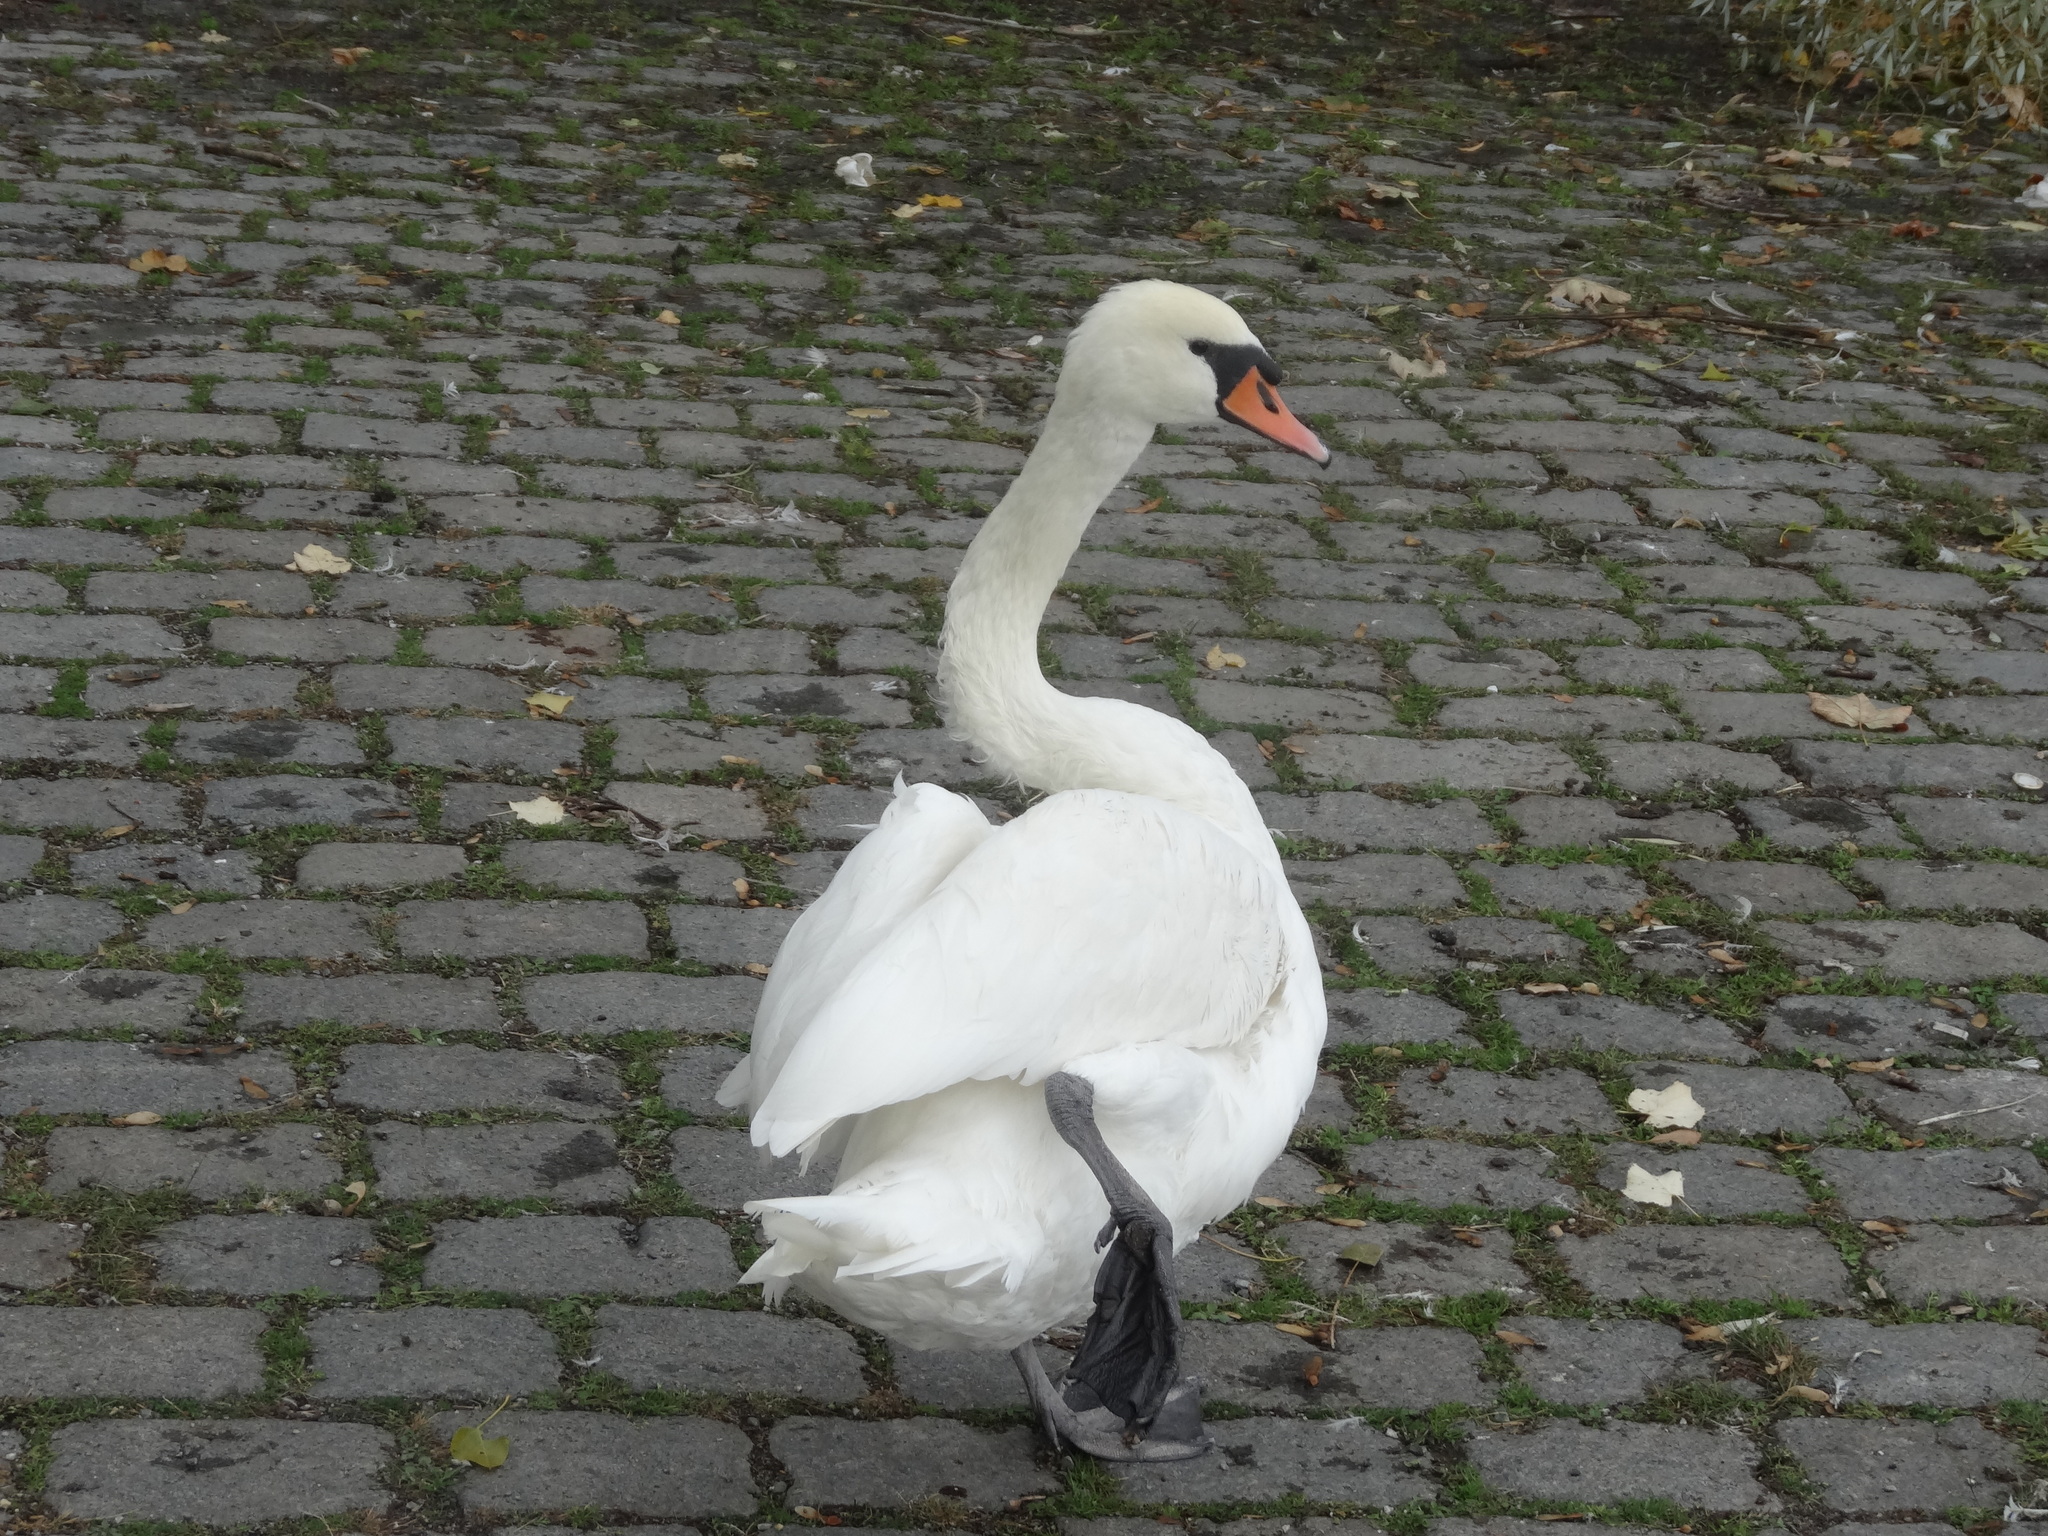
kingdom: Animalia
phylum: Chordata
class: Aves
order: Anseriformes
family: Anatidae
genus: Cygnus
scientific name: Cygnus olor
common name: Mute swan
